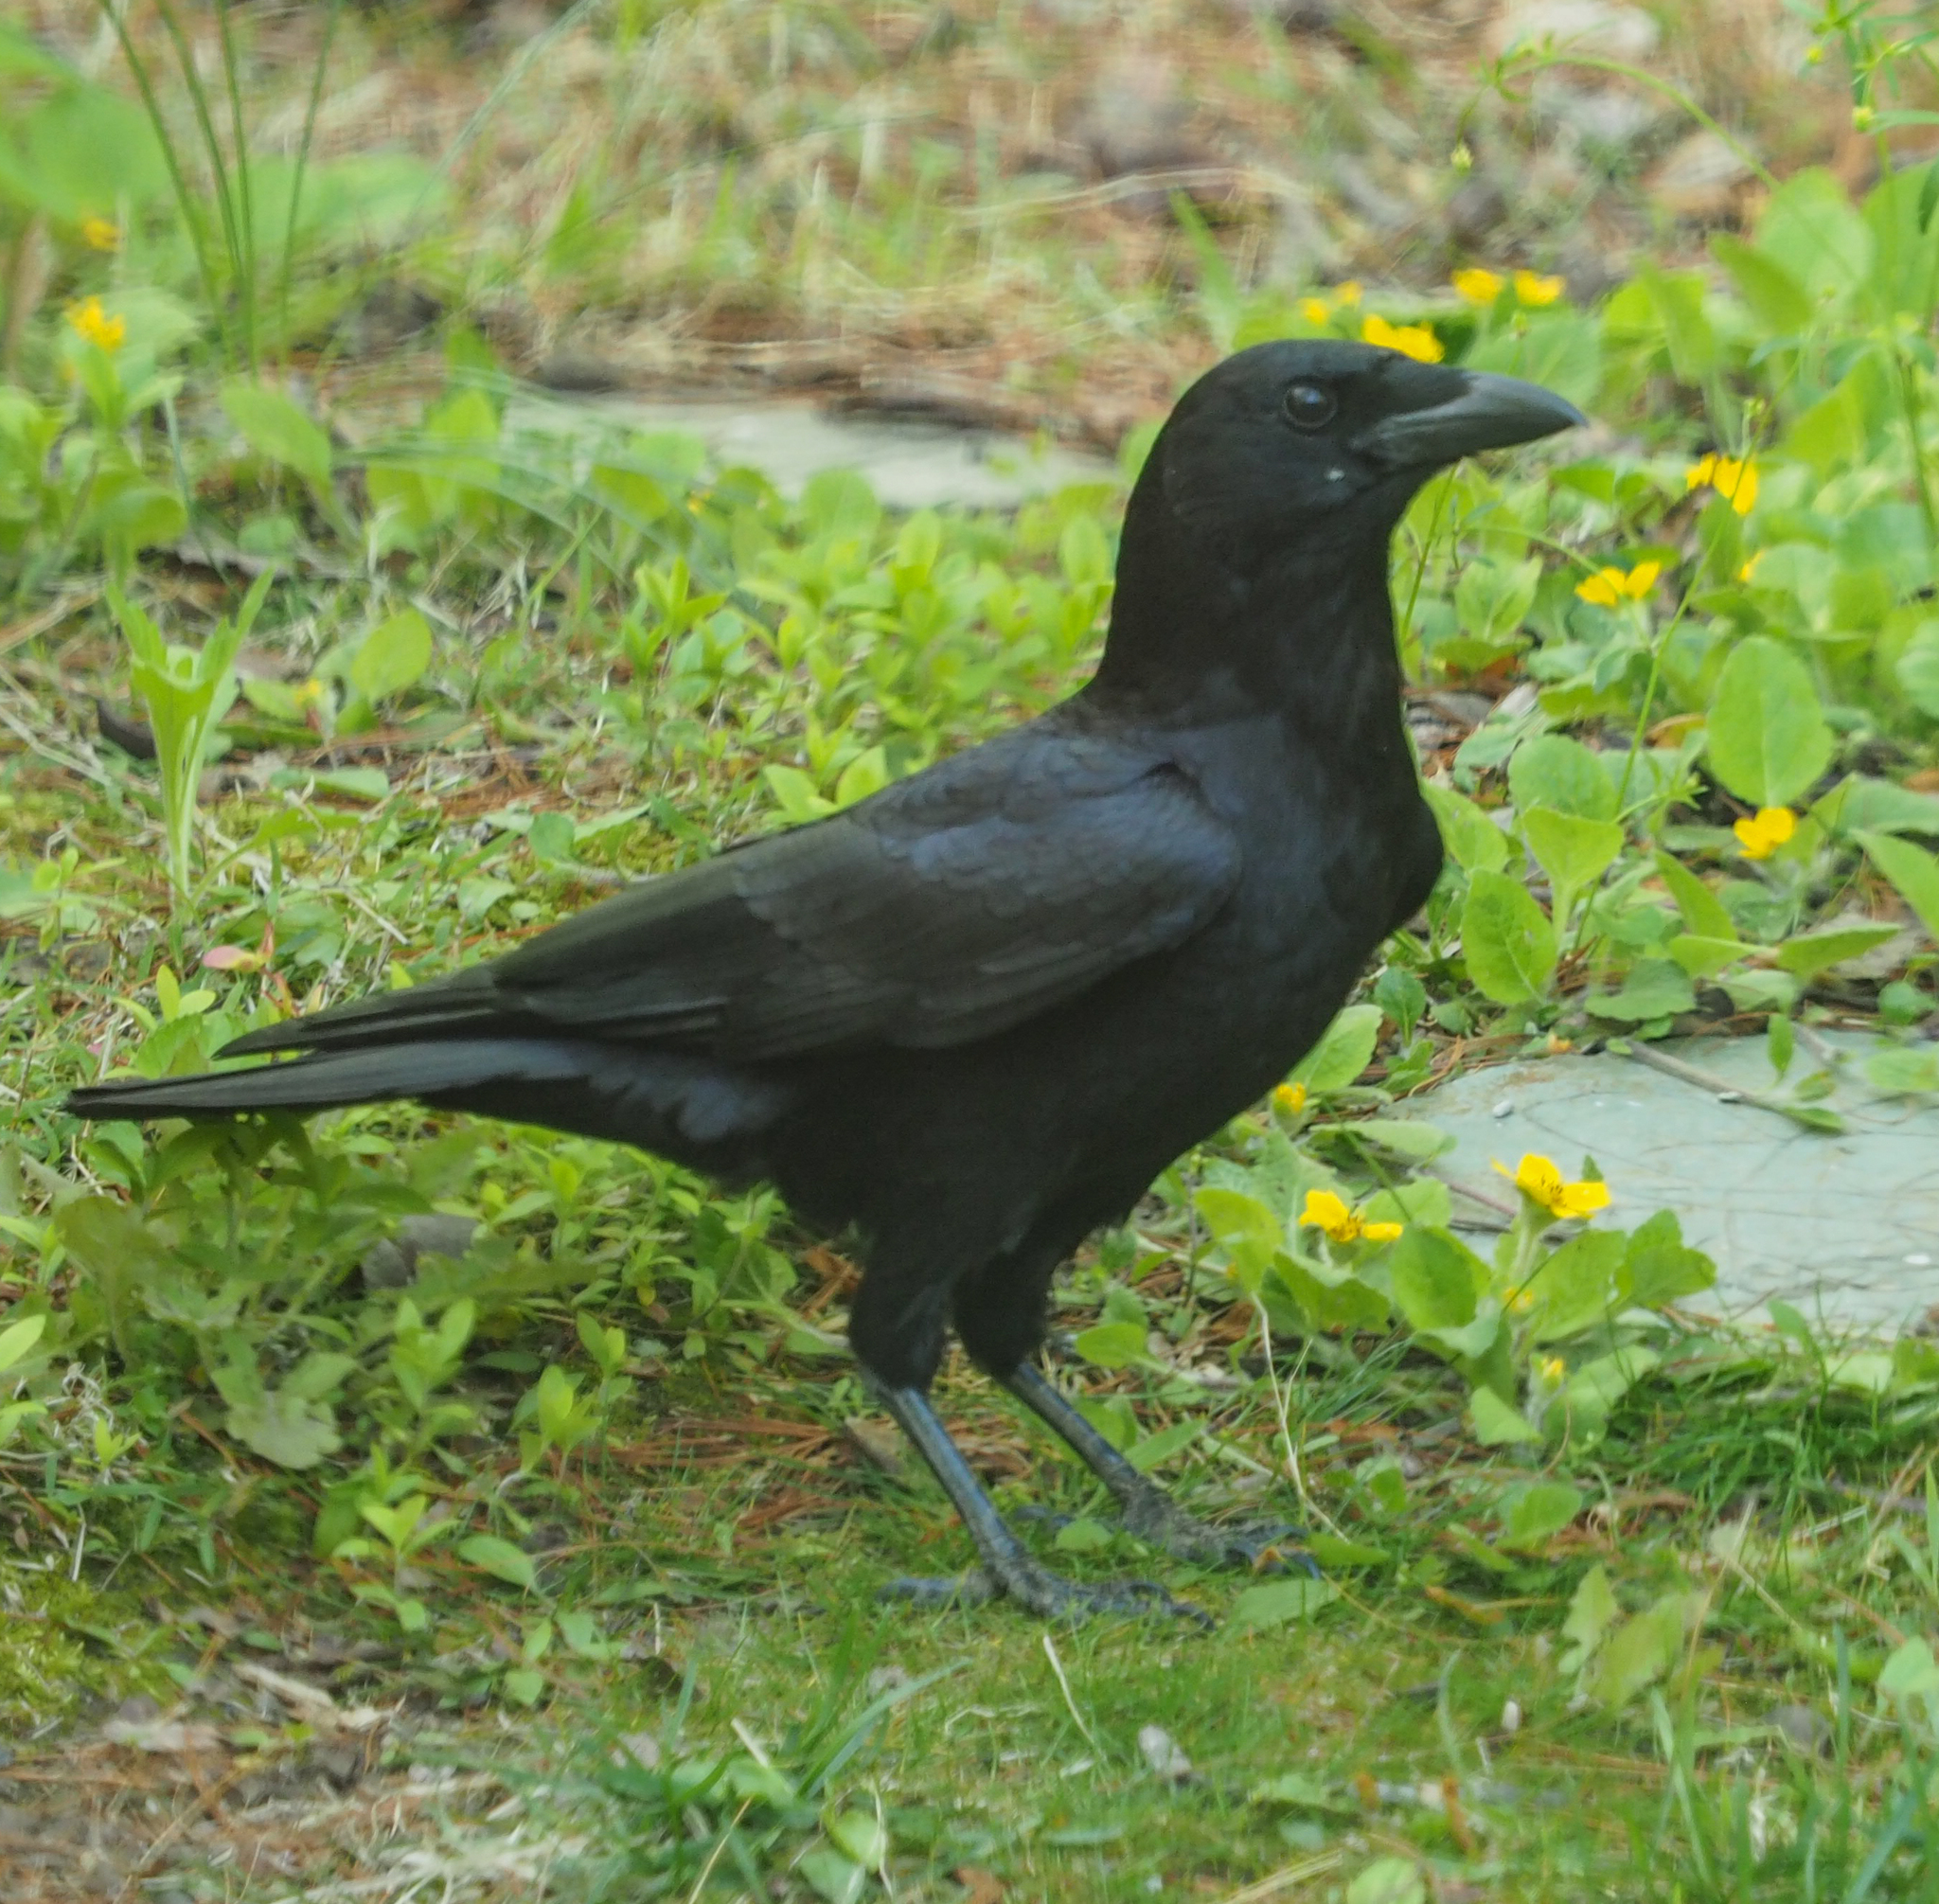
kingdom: Animalia
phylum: Chordata
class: Aves
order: Passeriformes
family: Corvidae
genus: Corvus
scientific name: Corvus brachyrhynchos
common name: American crow
